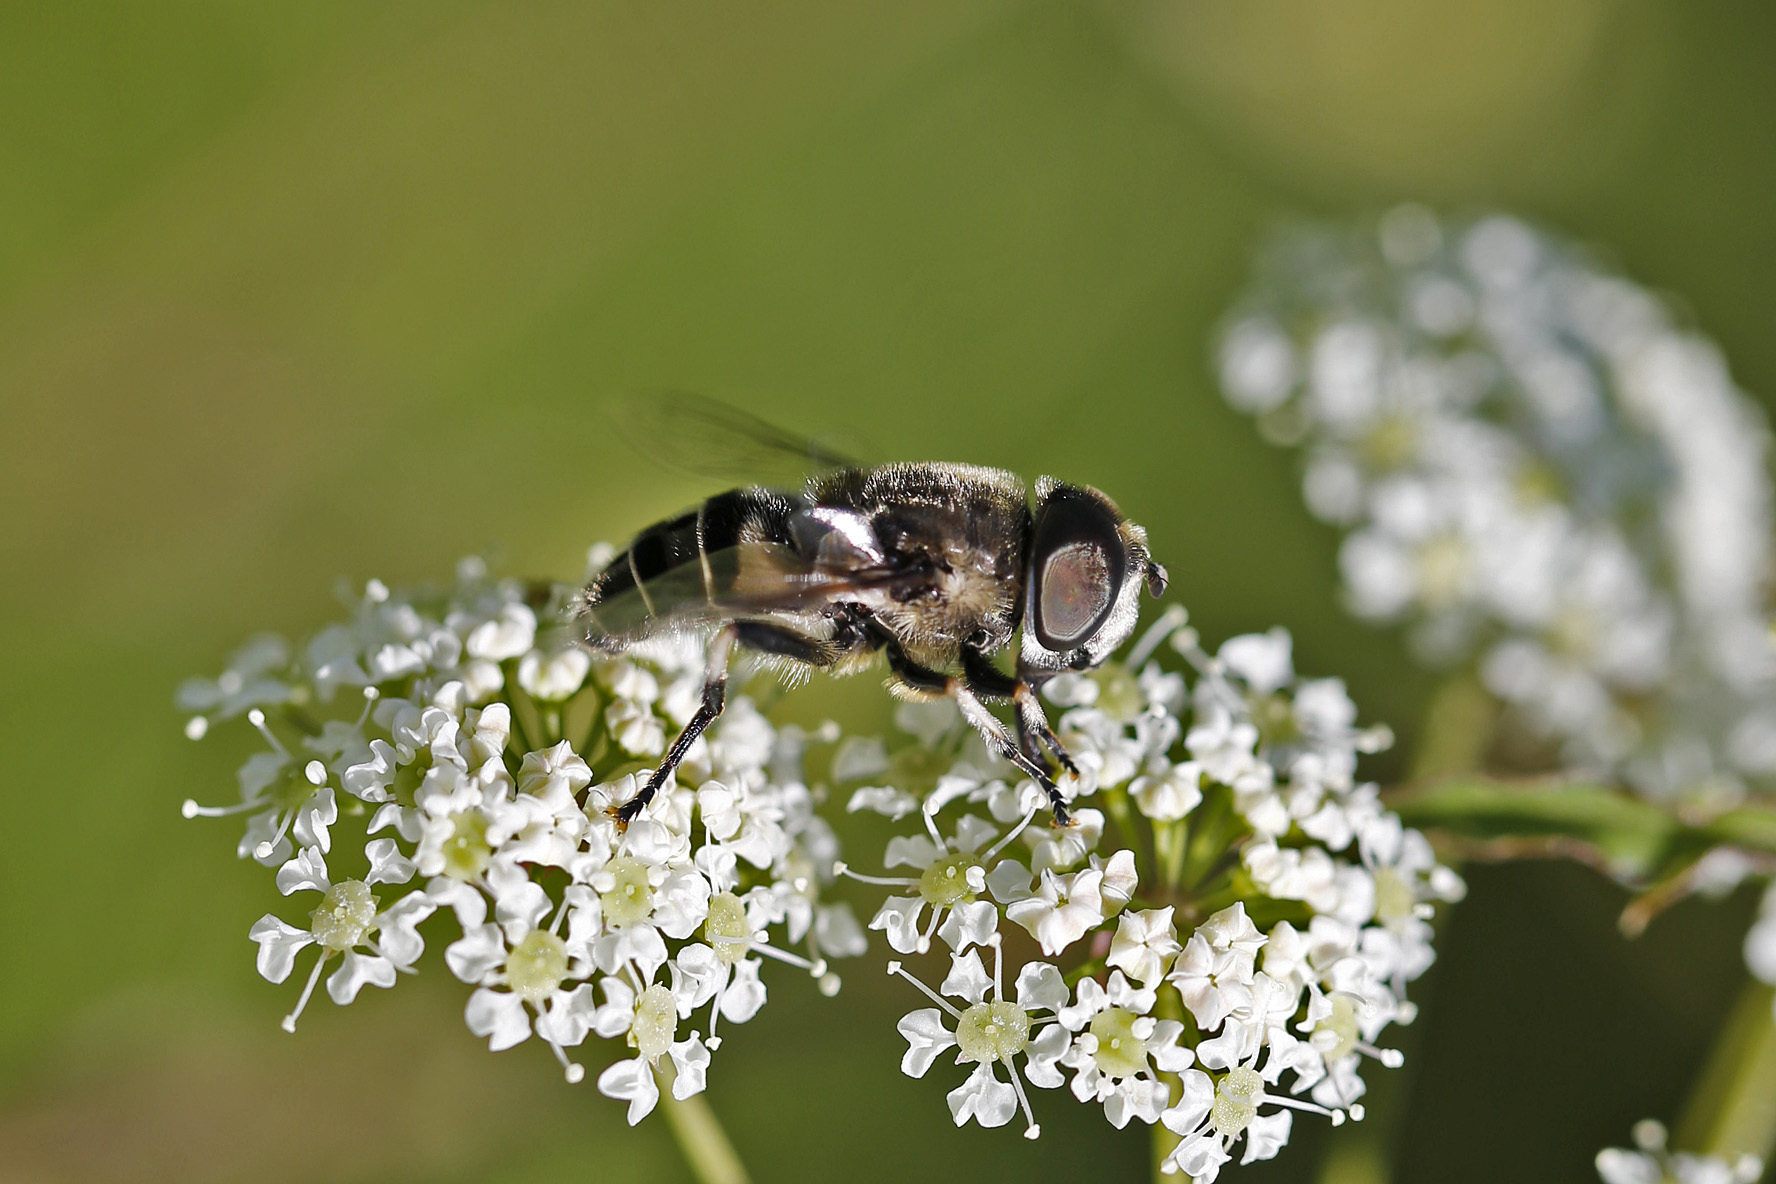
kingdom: Animalia
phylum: Arthropoda
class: Insecta
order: Diptera
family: Syrphidae
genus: Eristalis
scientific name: Eristalis dimidiata
